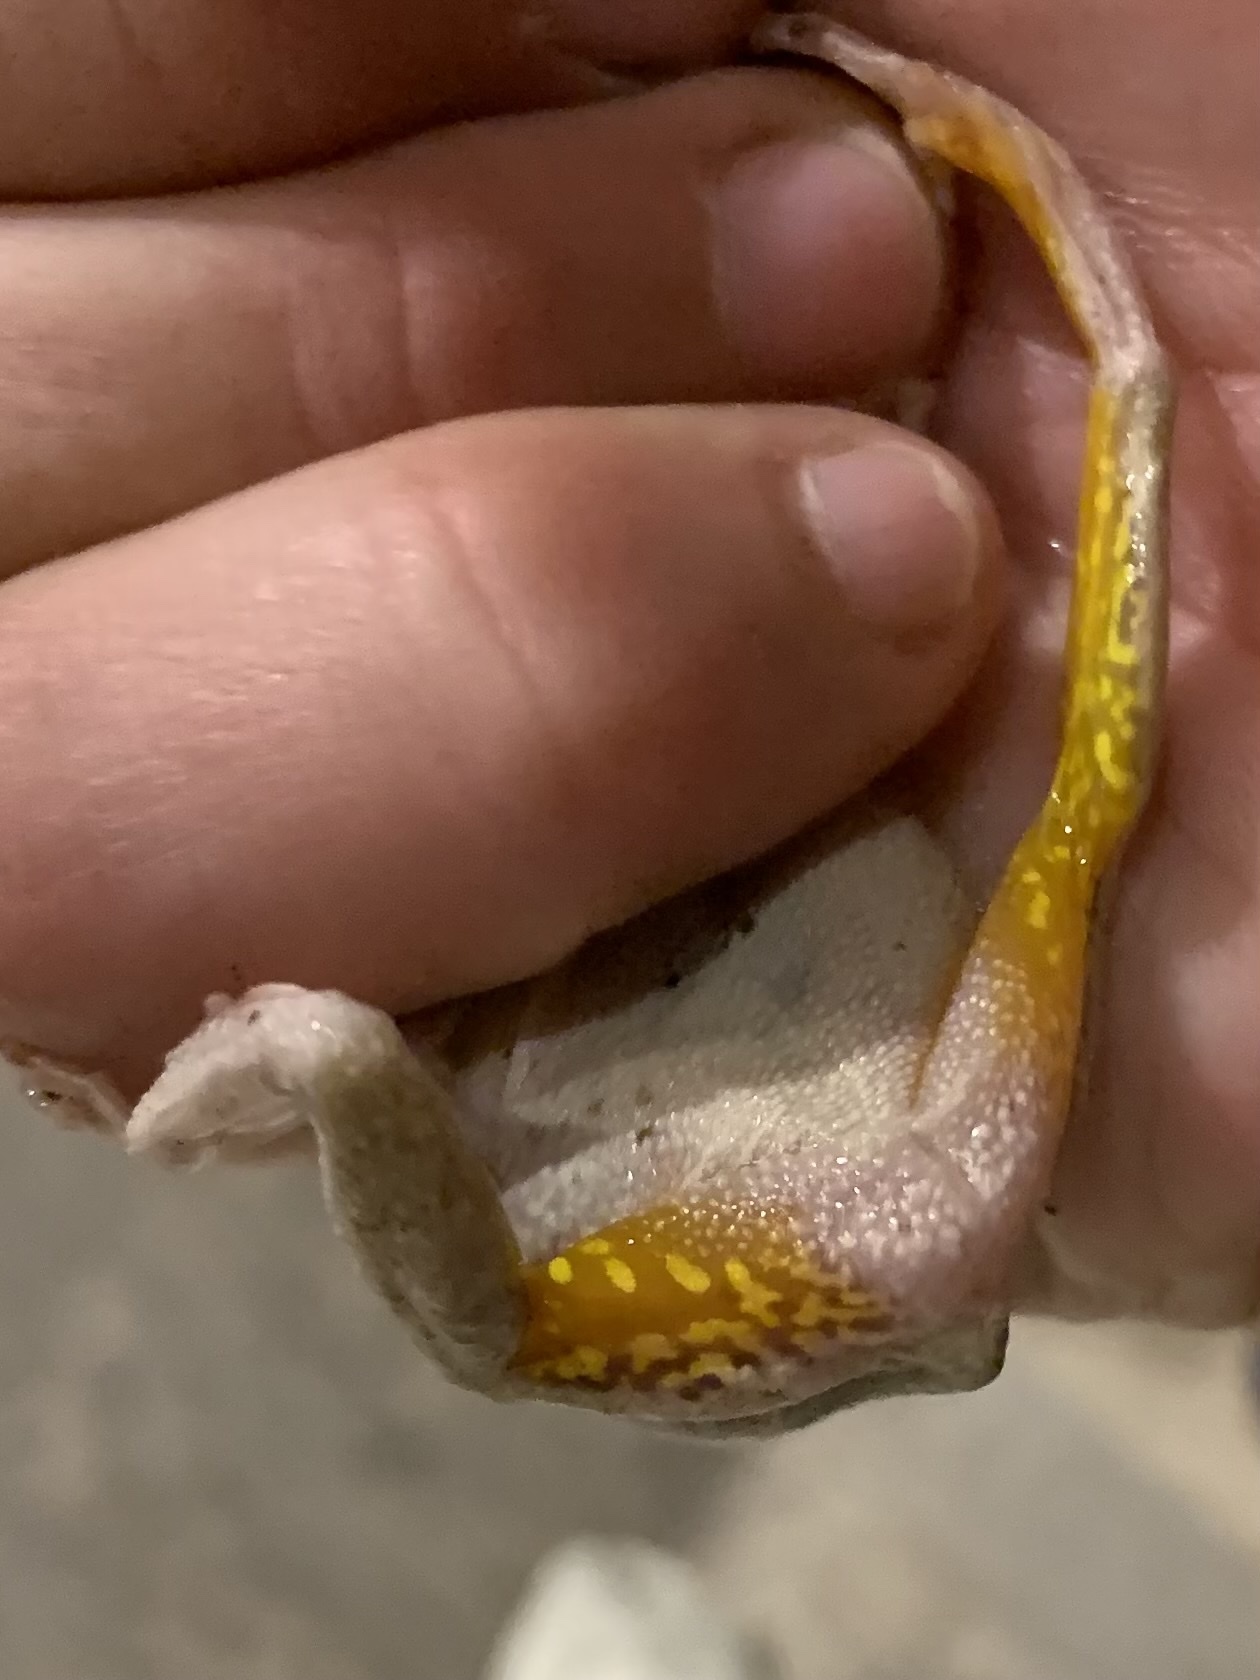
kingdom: Animalia
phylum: Chordata
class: Amphibia
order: Anura
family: Hylidae
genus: Hyla
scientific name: Hyla
